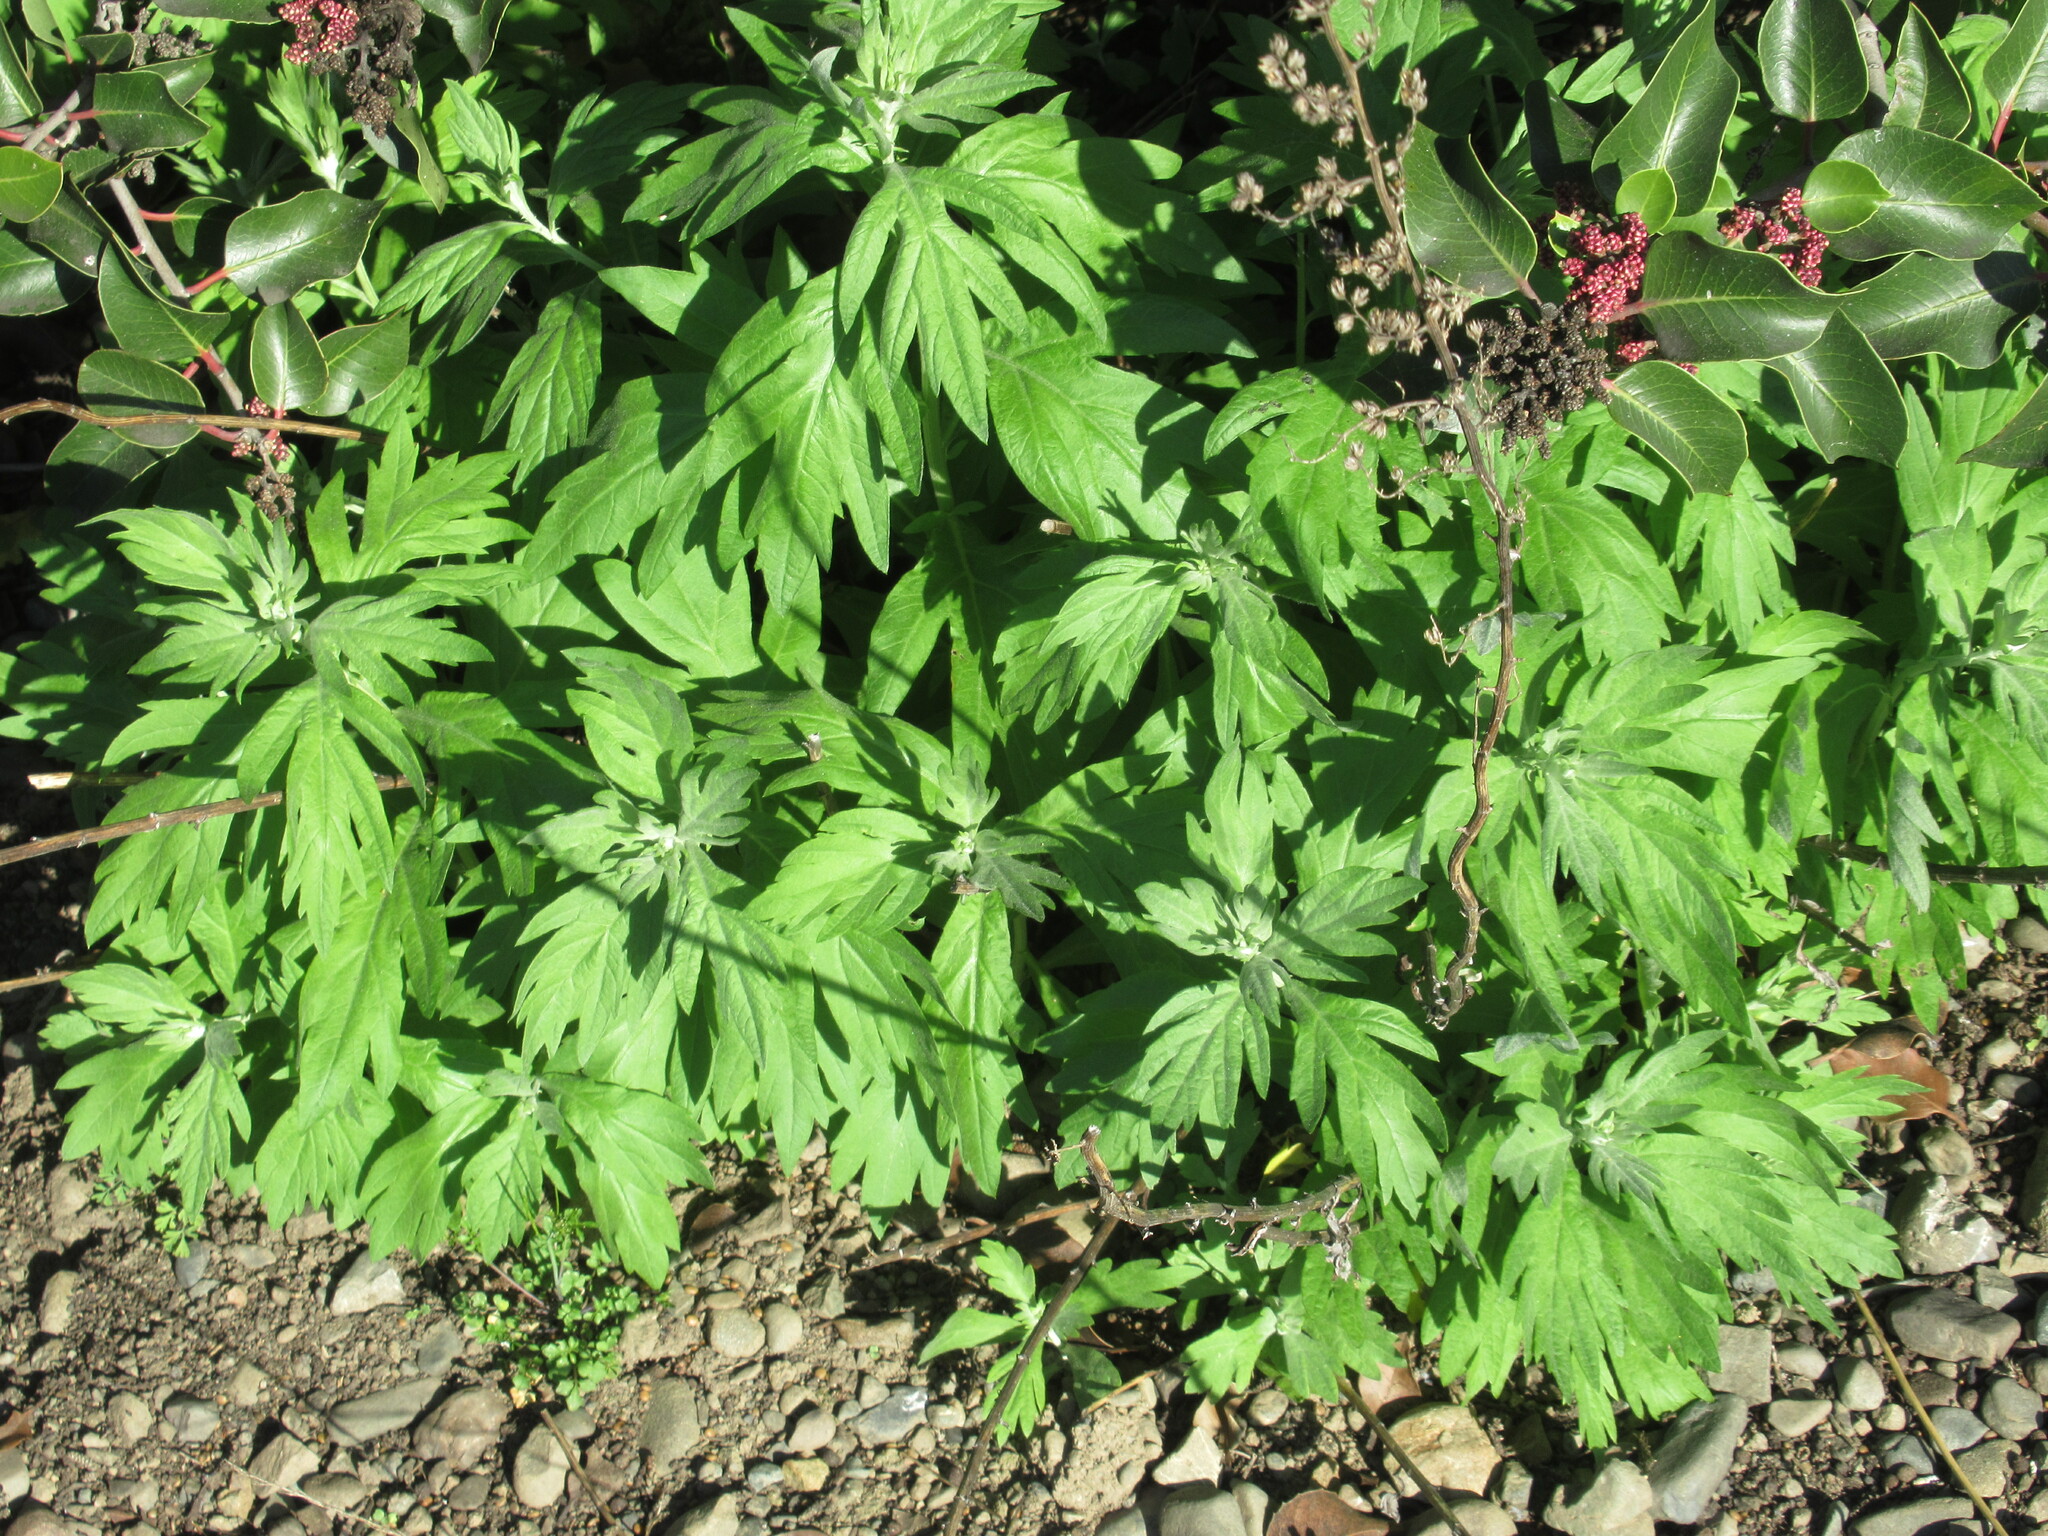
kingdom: Plantae
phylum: Tracheophyta
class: Magnoliopsida
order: Asterales
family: Asteraceae
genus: Artemisia
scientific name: Artemisia douglasiana
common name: Northwest mugwort
